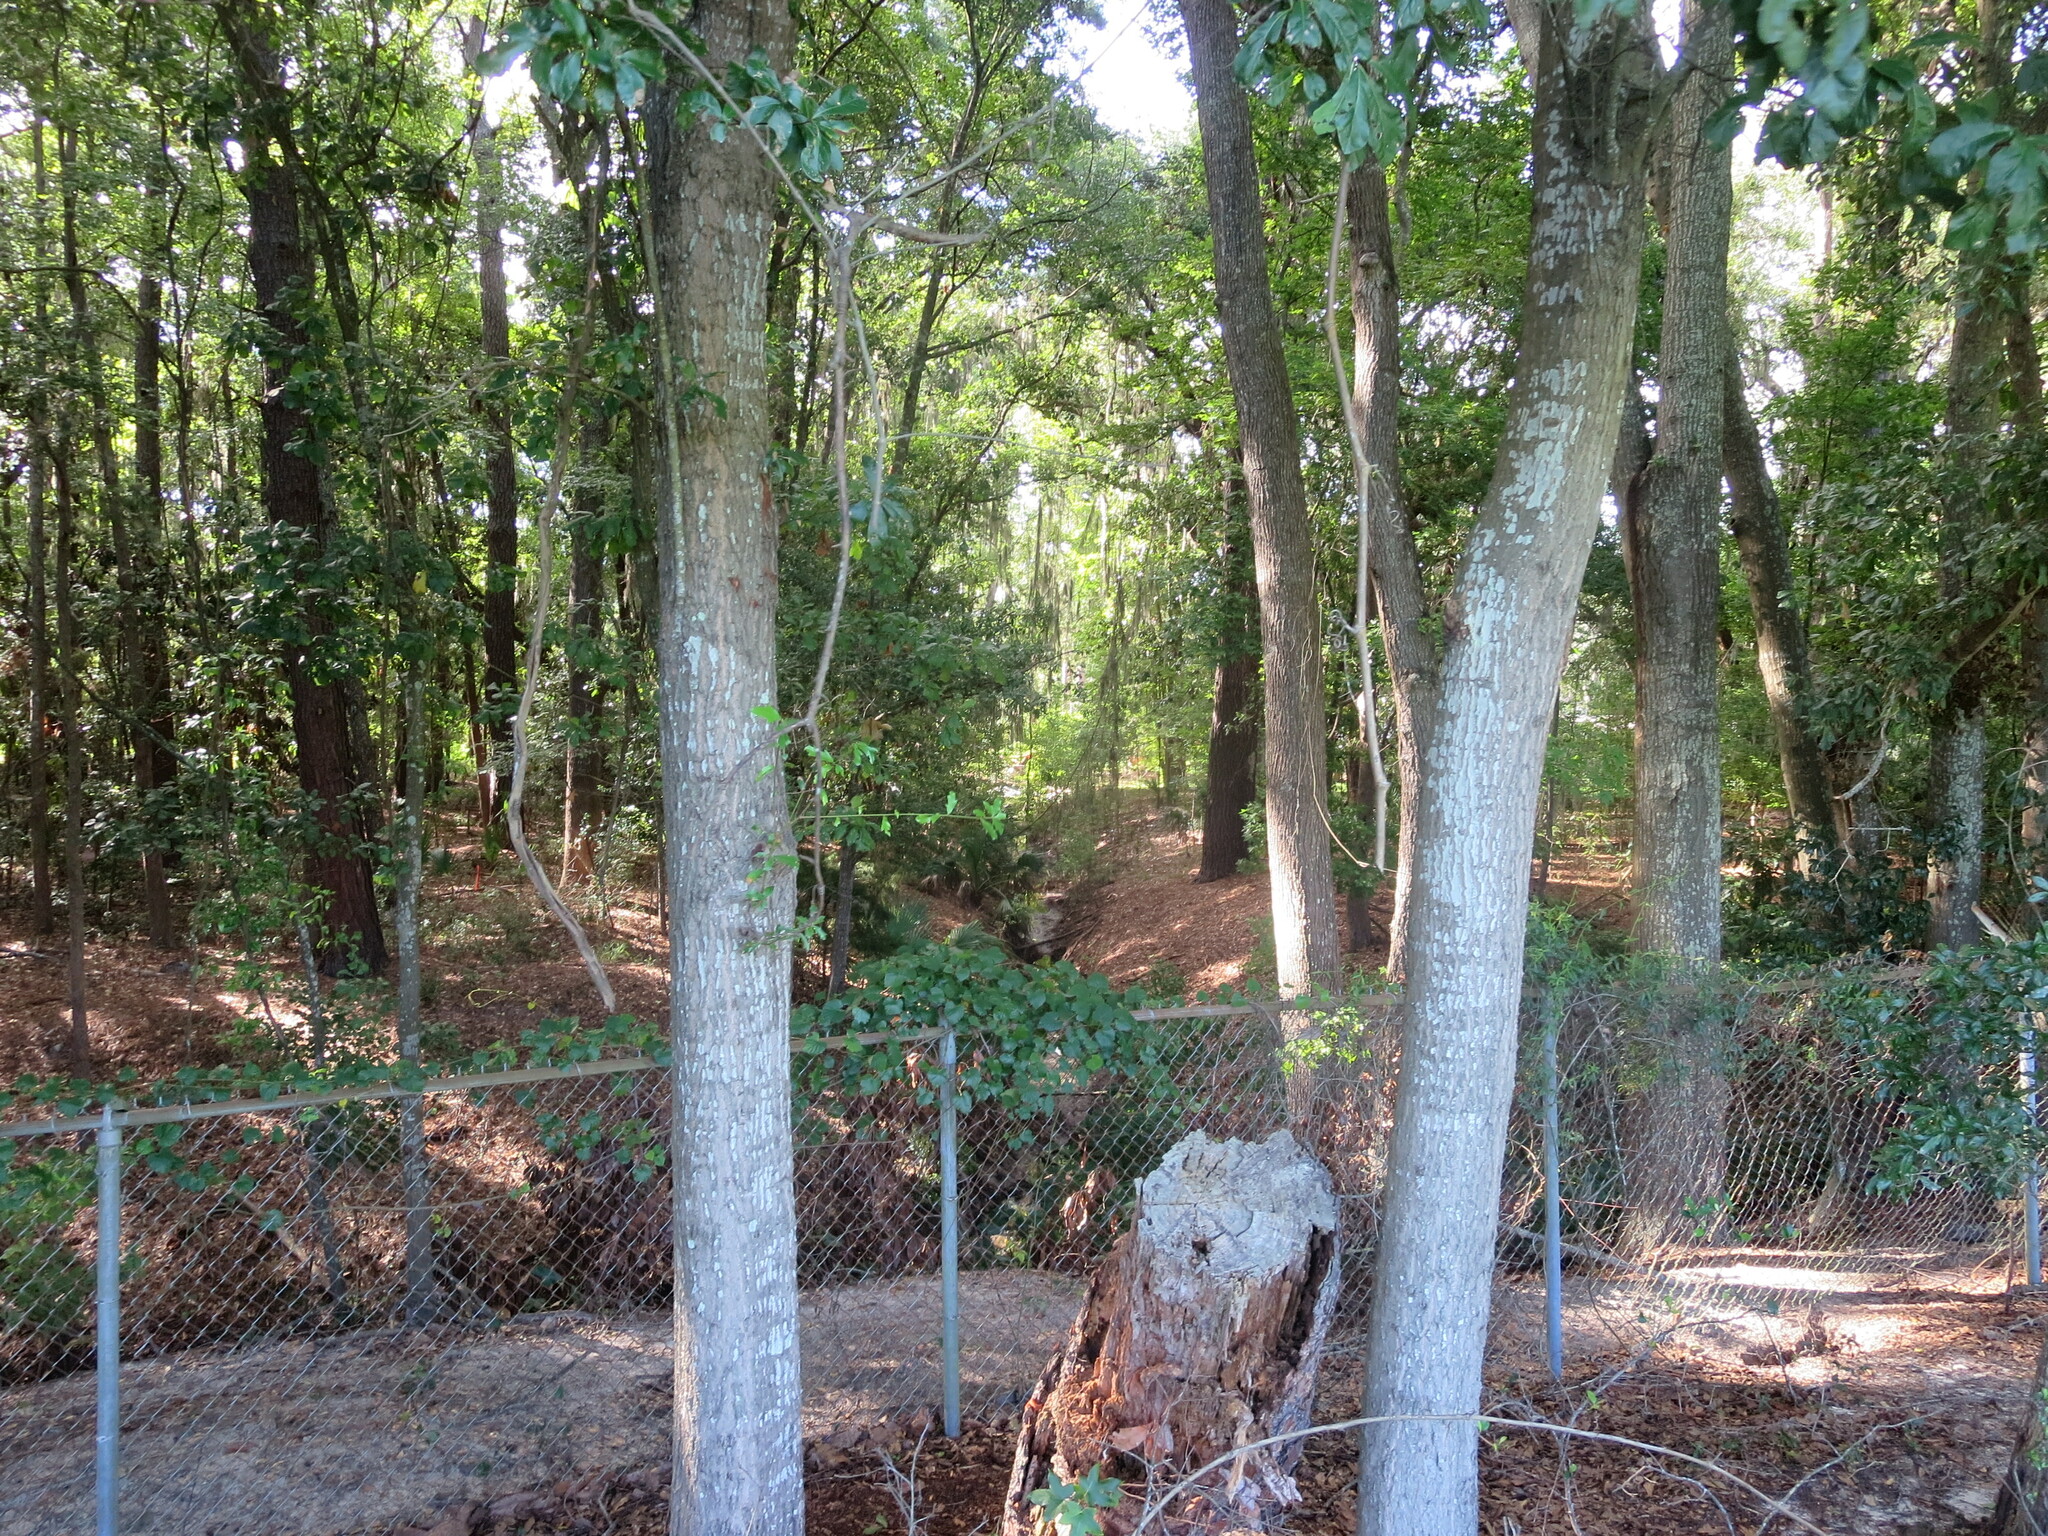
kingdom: Plantae
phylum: Tracheophyta
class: Magnoliopsida
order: Fagales
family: Fagaceae
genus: Quercus
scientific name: Quercus nigra
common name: Water oak
